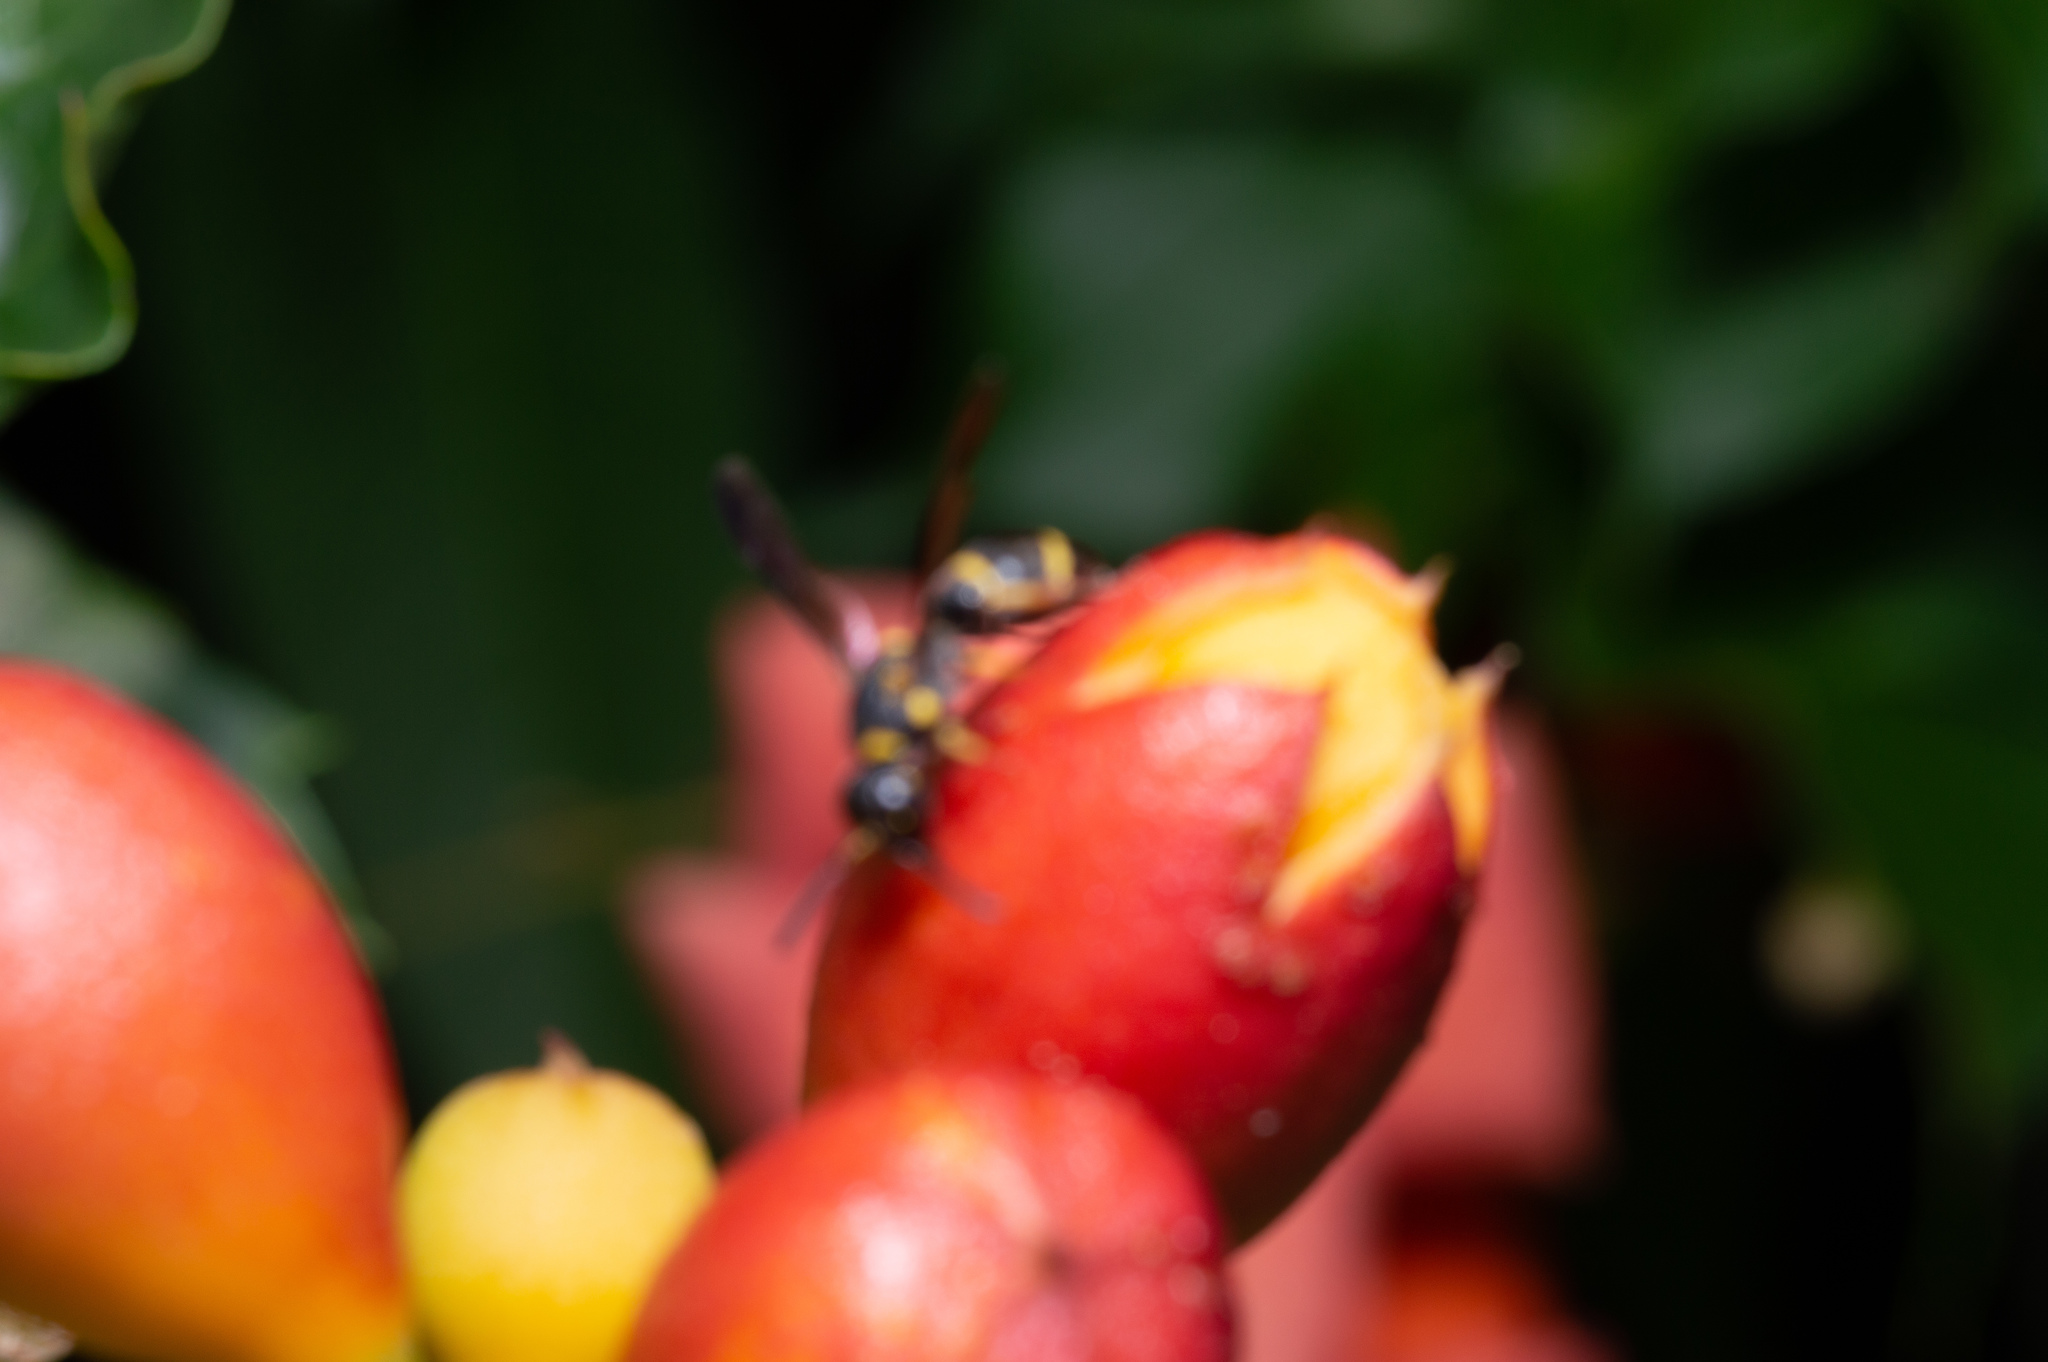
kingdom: Animalia
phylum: Arthropoda
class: Insecta
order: Hymenoptera
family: Eumenidae
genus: Parancistrocerus
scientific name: Parancistrocerus perennis
